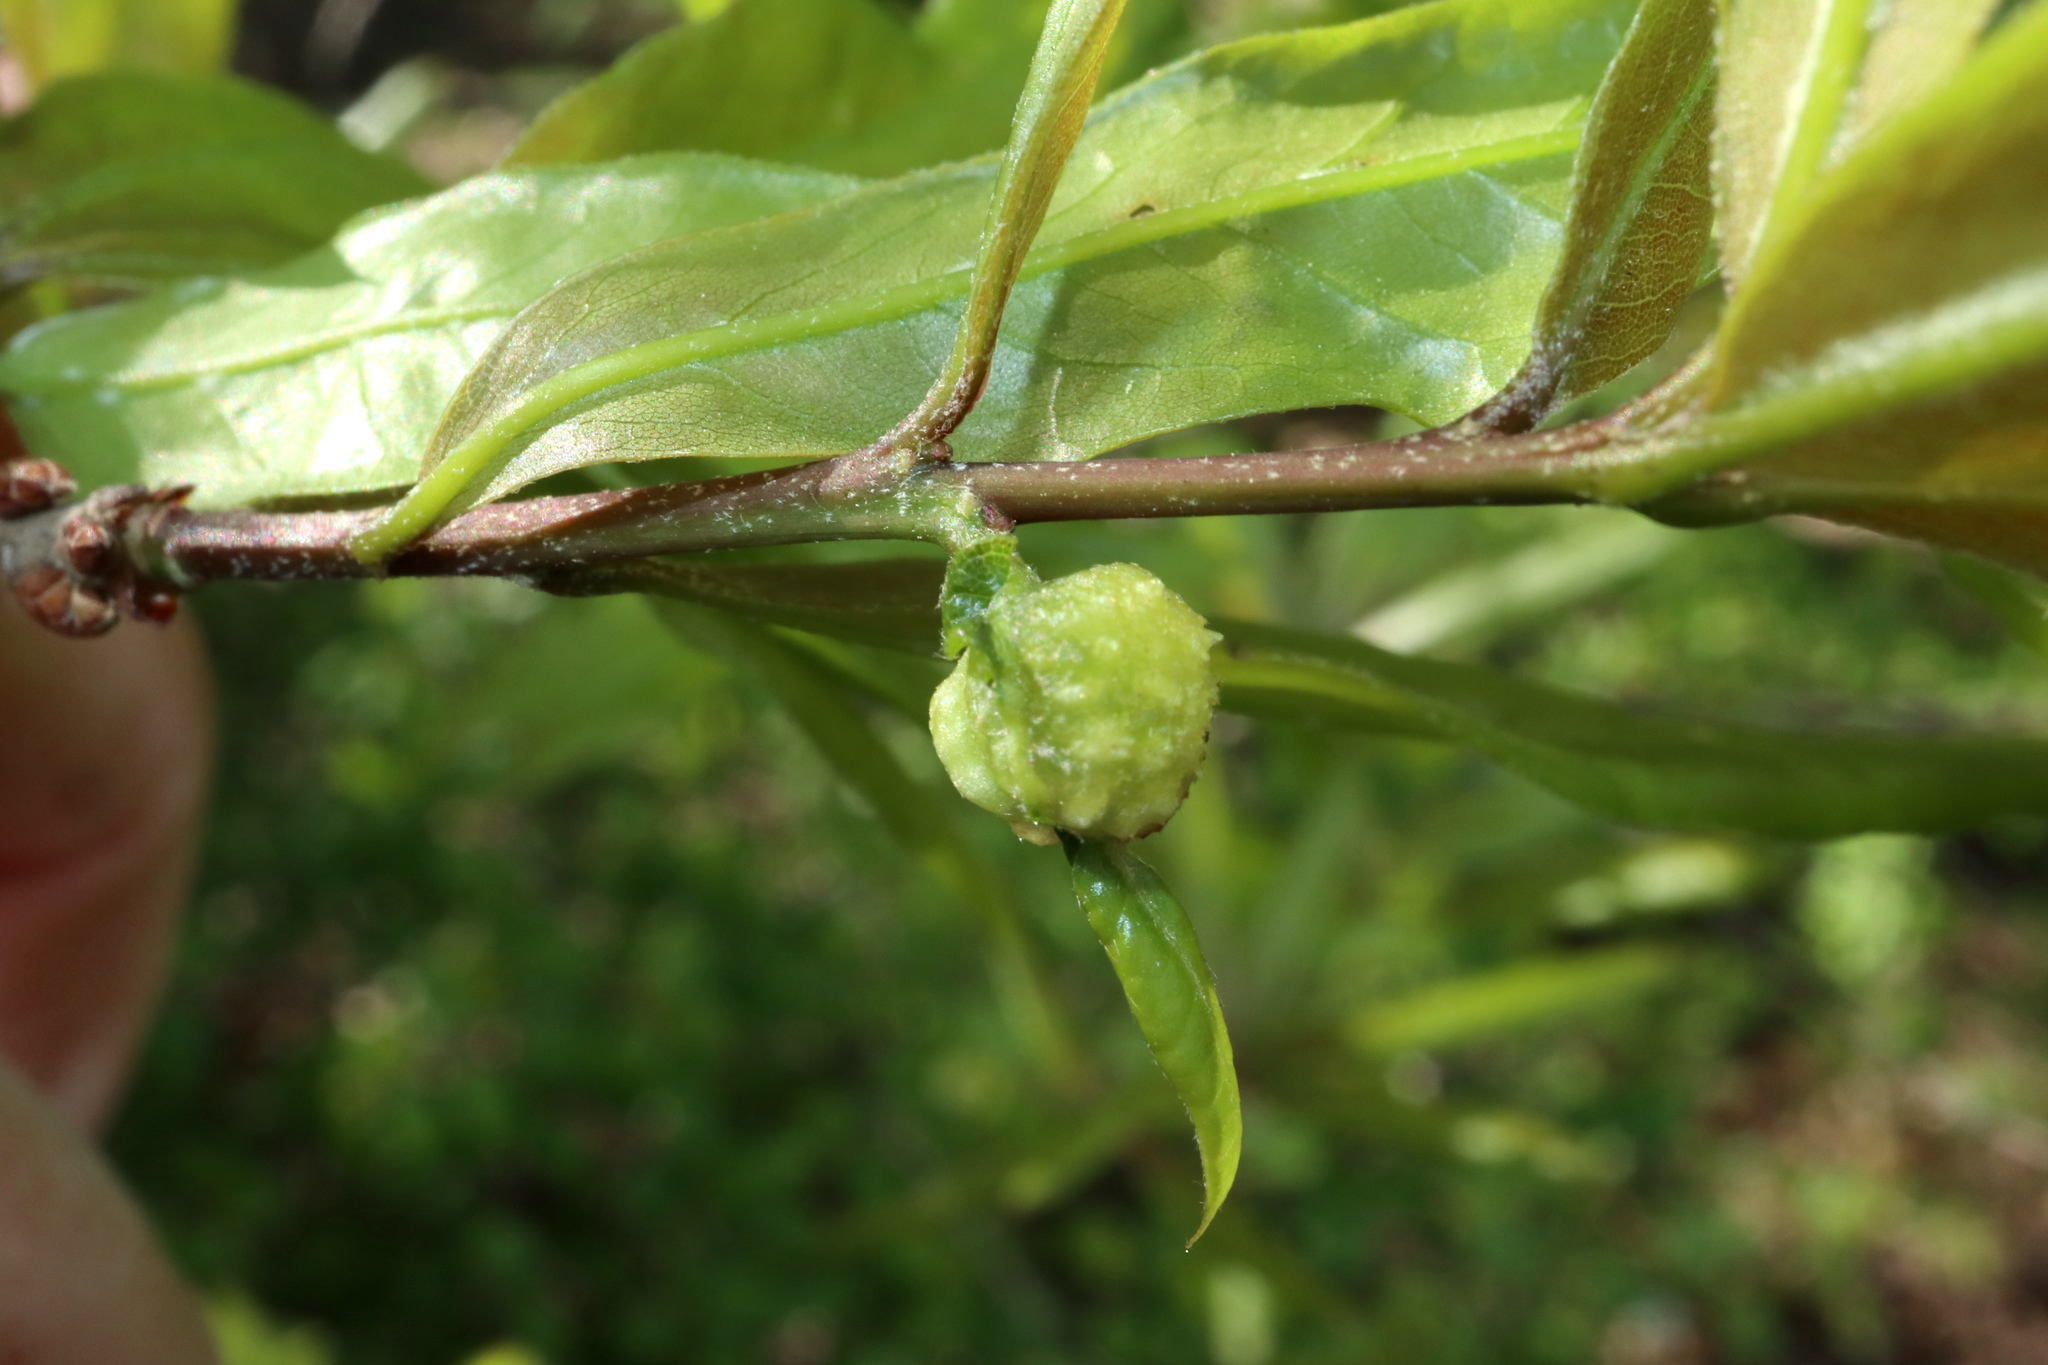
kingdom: Animalia
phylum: Arthropoda
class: Insecta
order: Hymenoptera
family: Cynipidae
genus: Dryocosmus
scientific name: Dryocosmus
